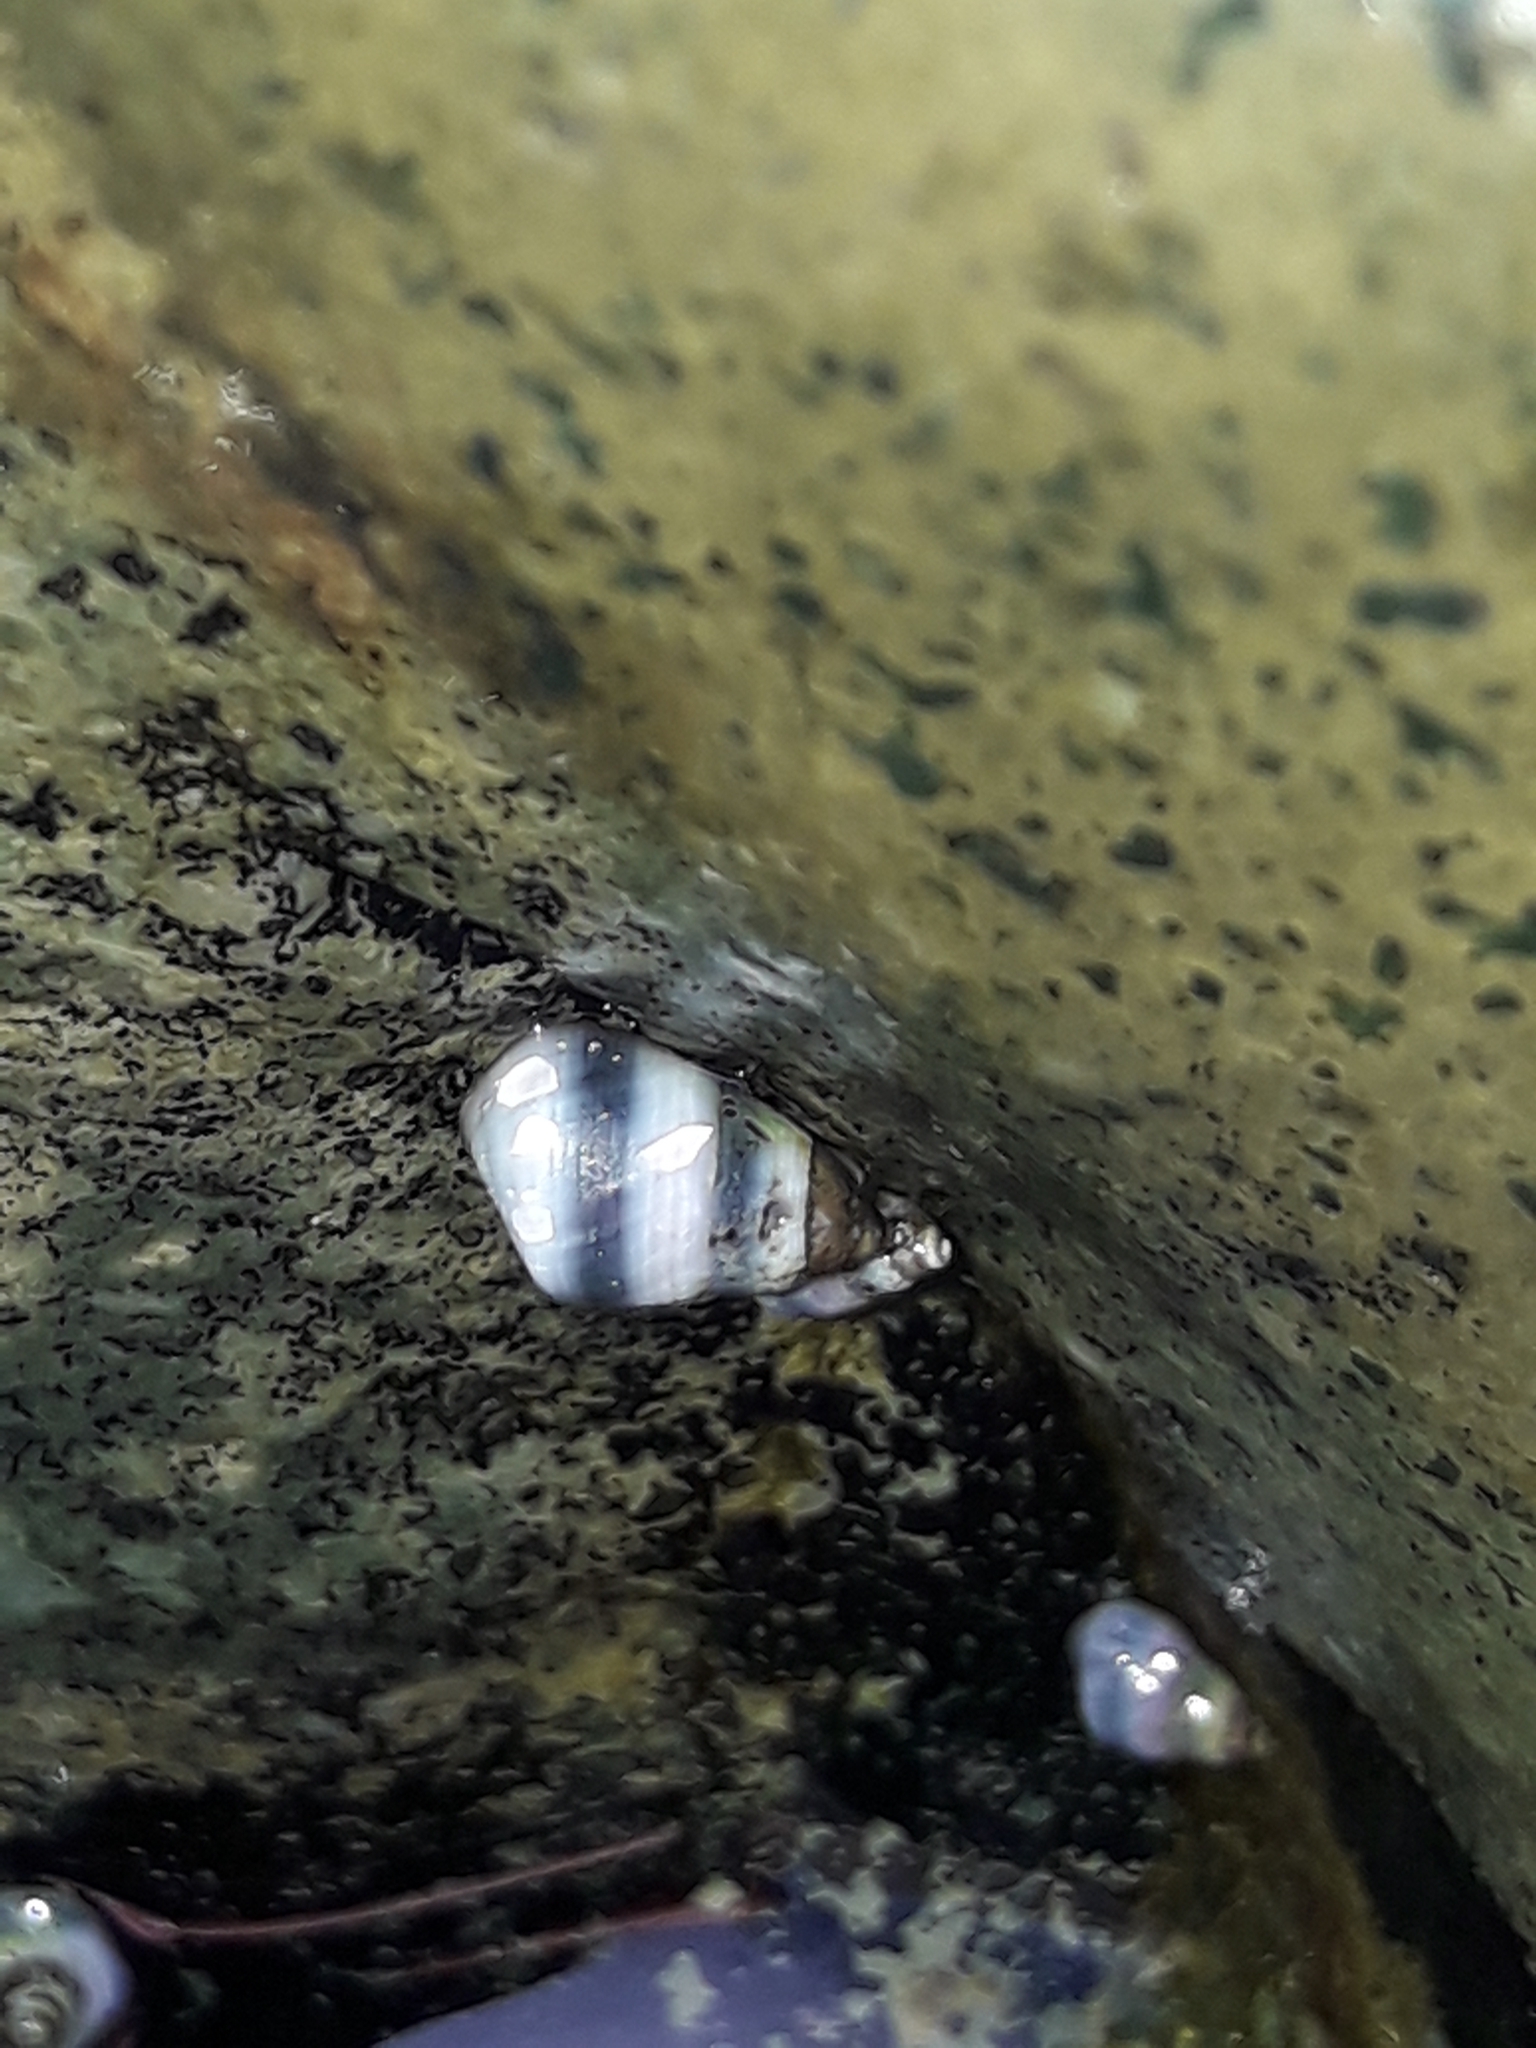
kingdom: Animalia
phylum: Mollusca
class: Gastropoda
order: Littorinimorpha
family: Littorinidae
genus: Austrolittorina
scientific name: Austrolittorina antipodum
